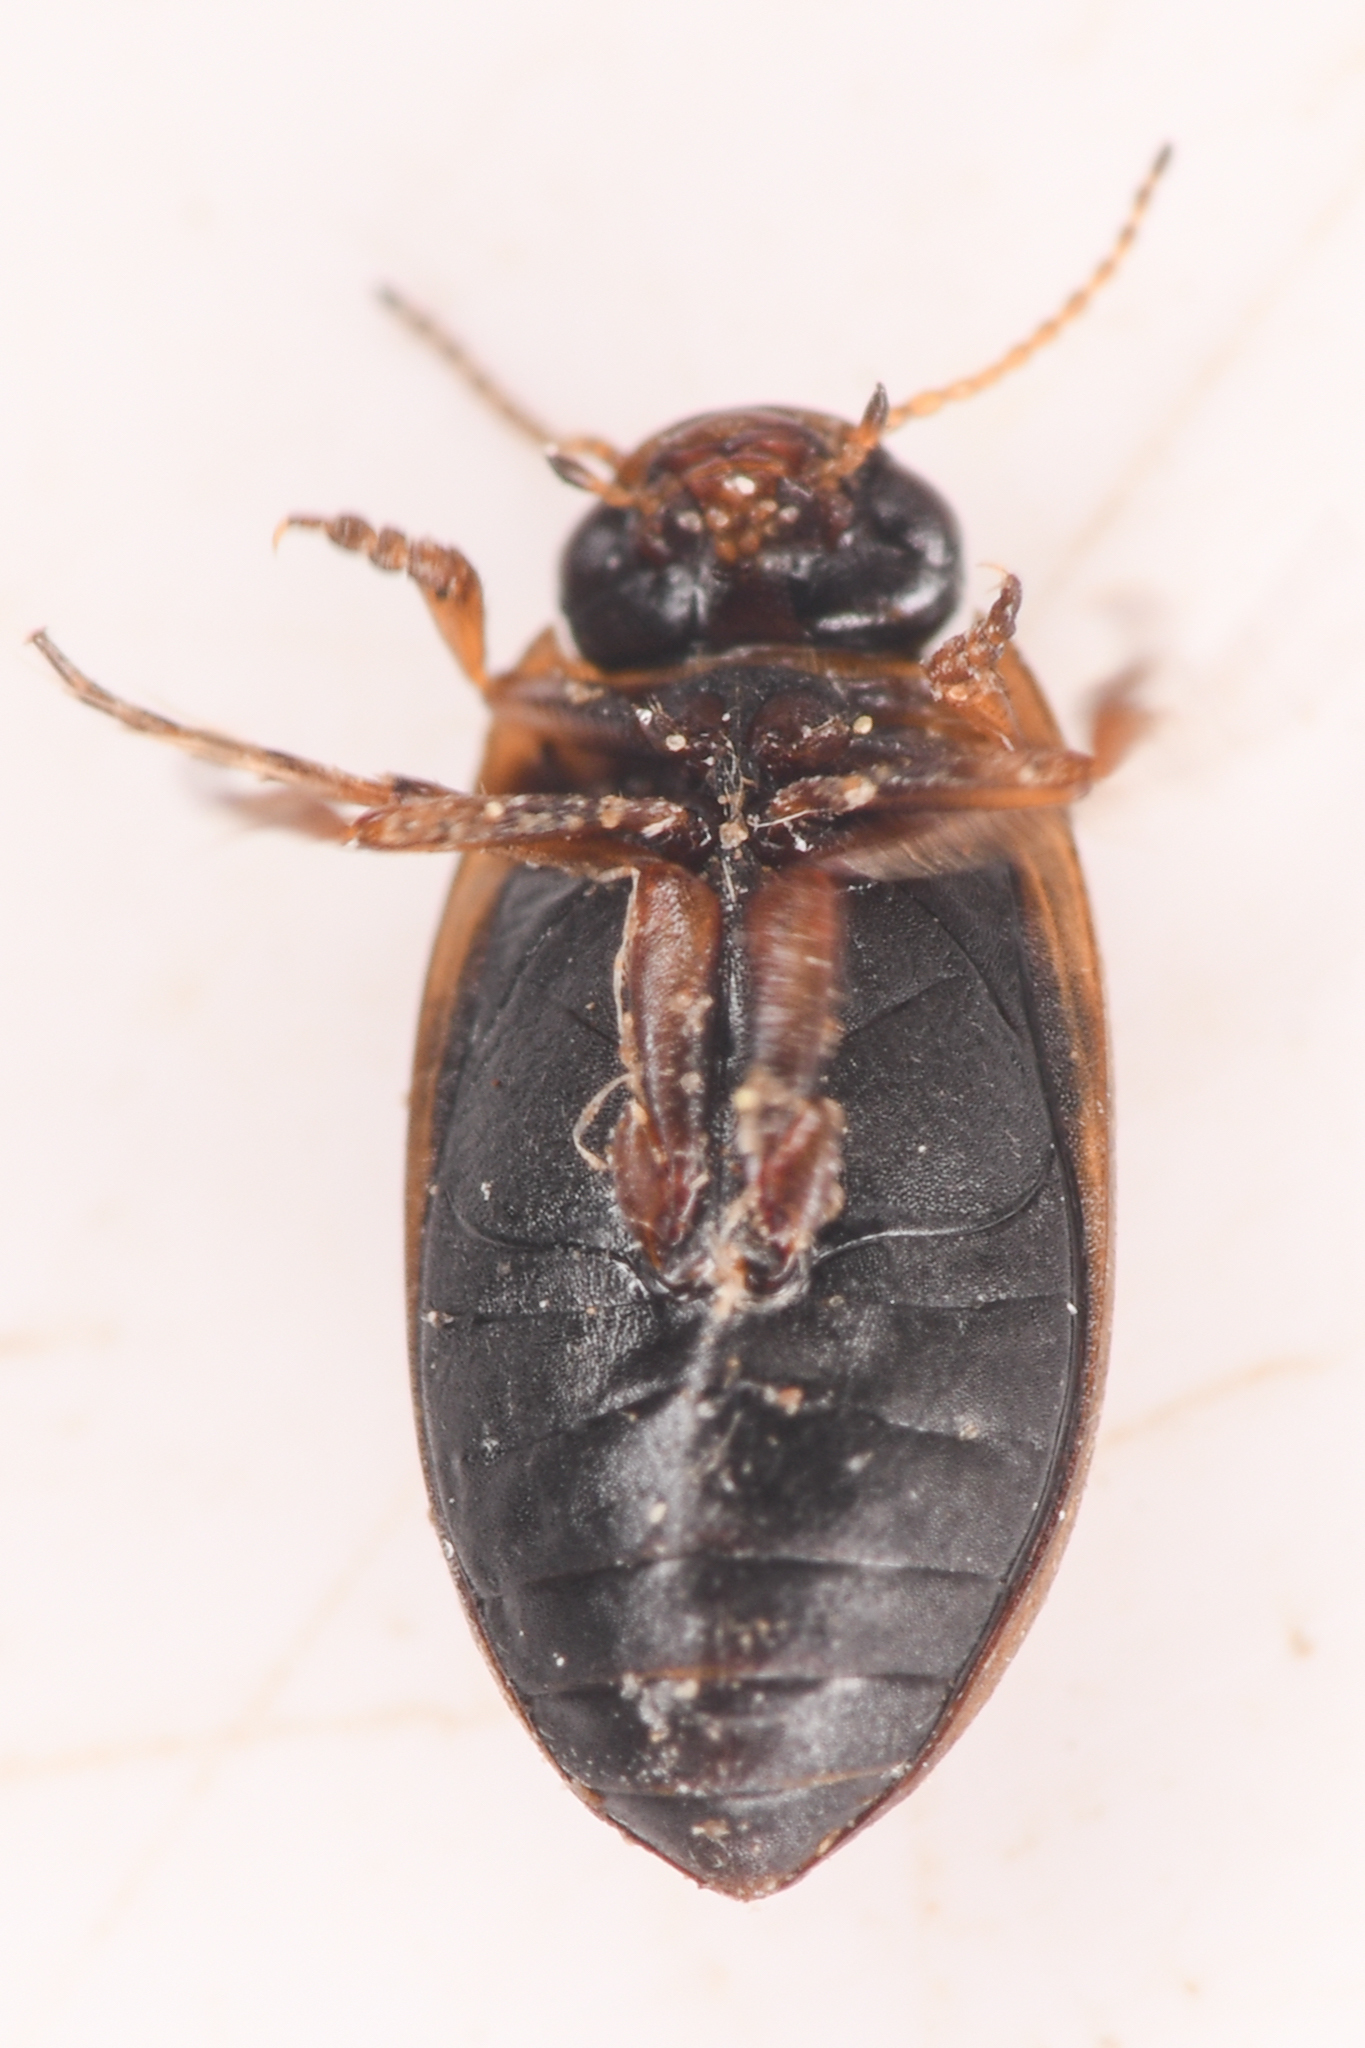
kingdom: Animalia
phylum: Arthropoda
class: Insecta
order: Coleoptera
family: Dytiscidae
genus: Boreonectes
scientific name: Boreonectes
